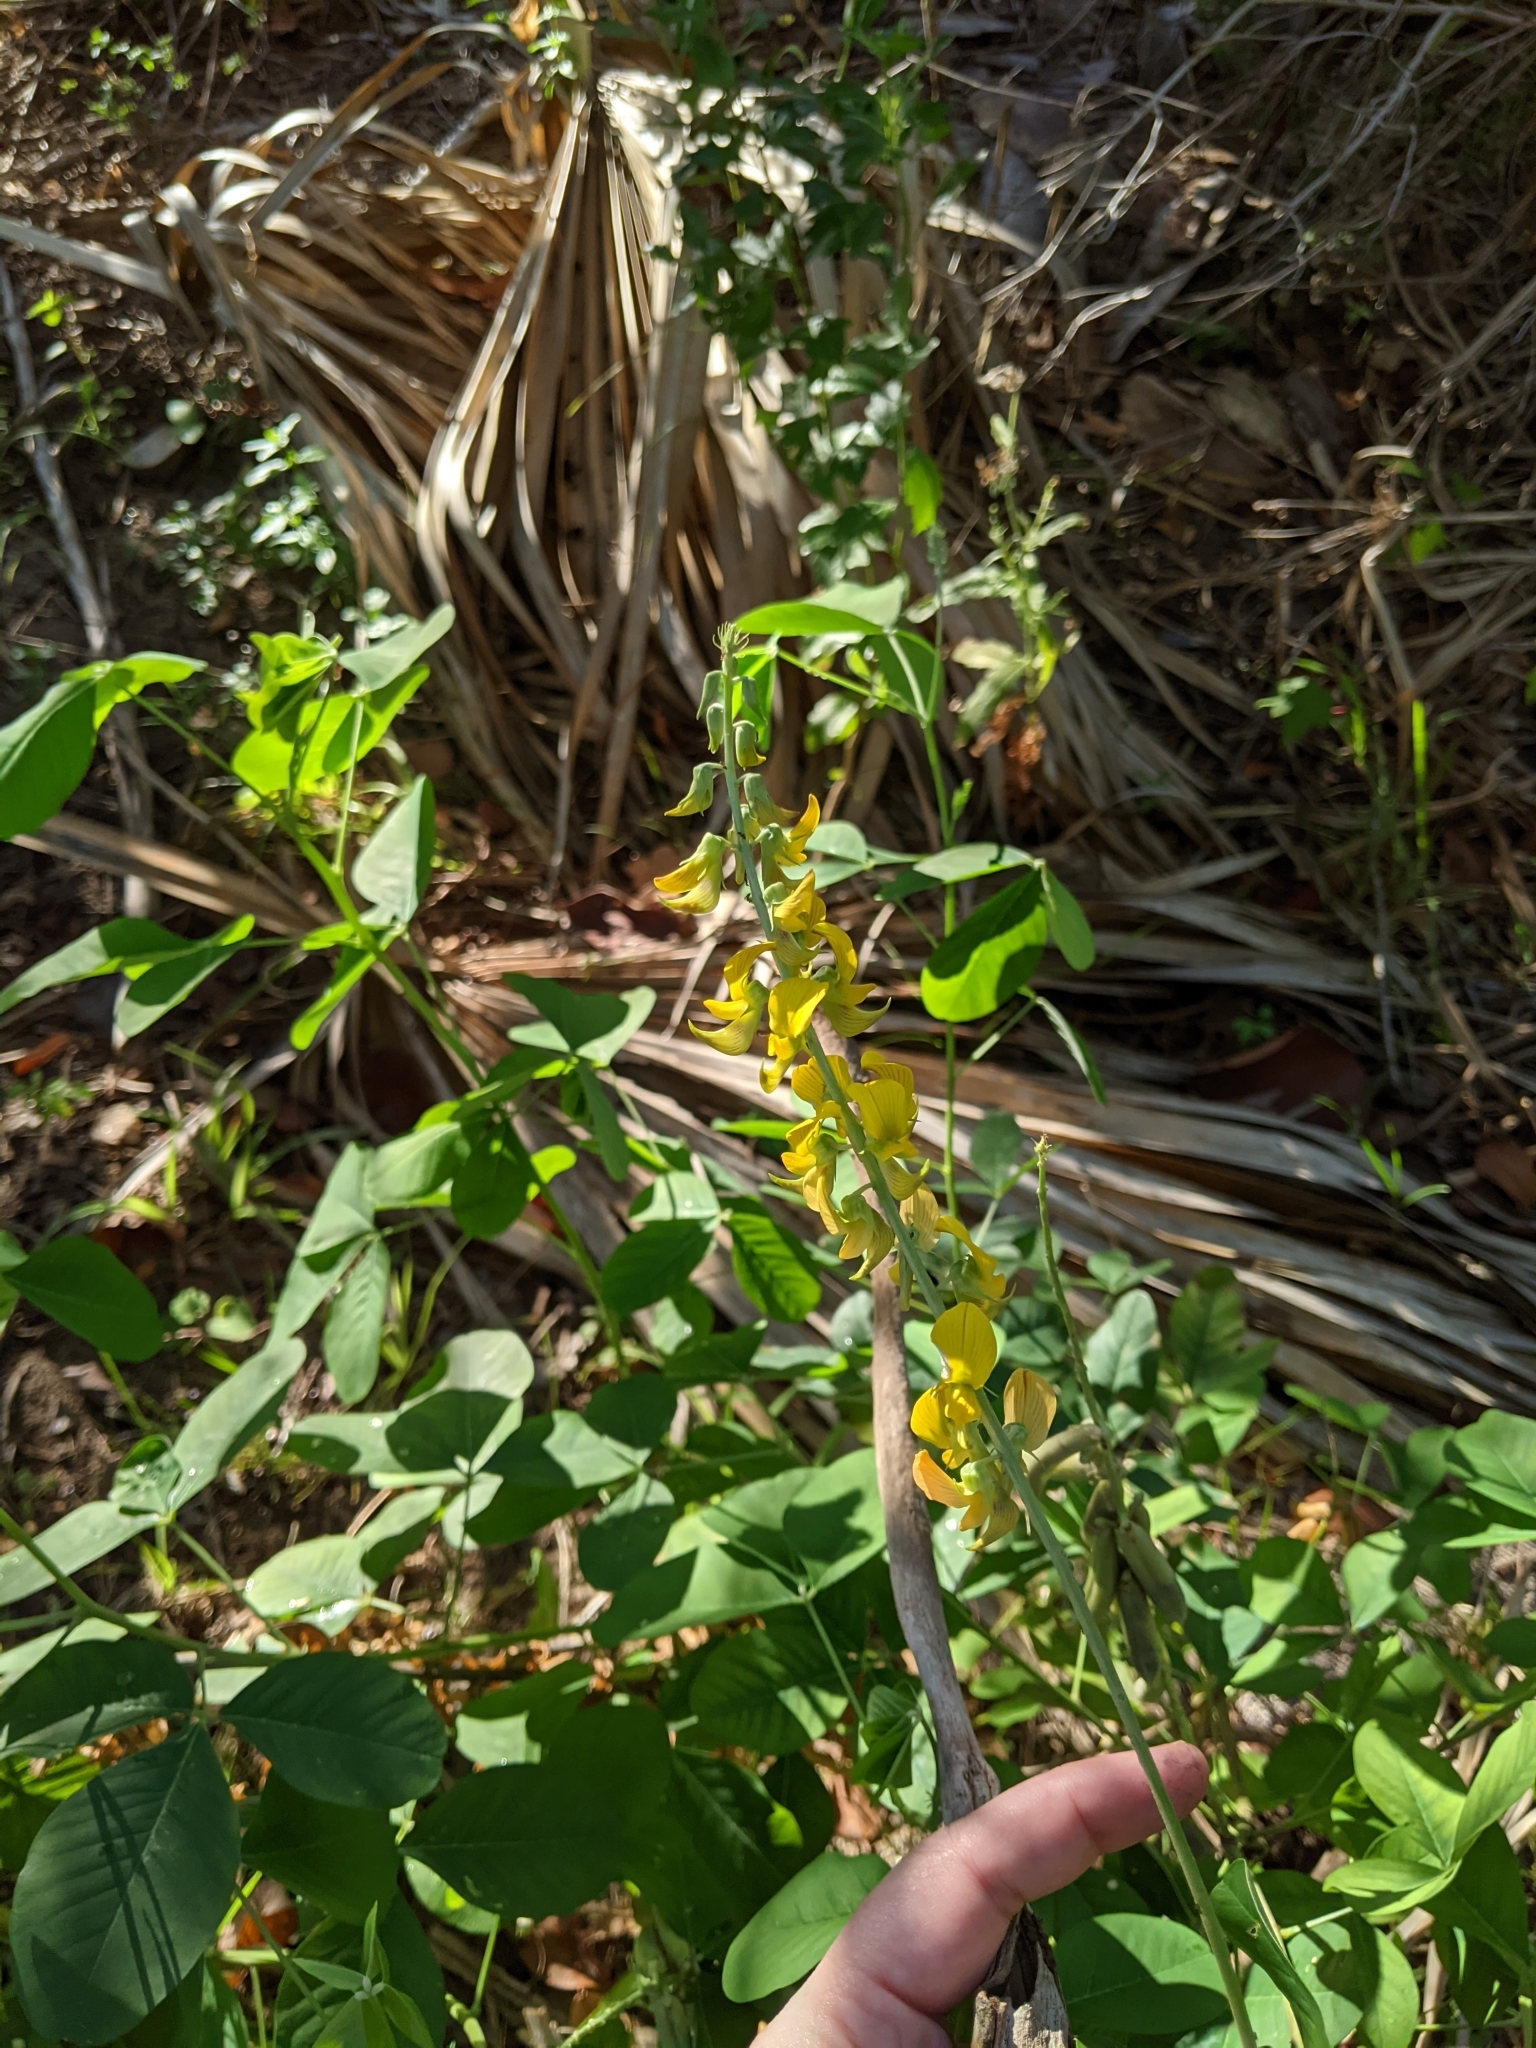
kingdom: Plantae
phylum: Tracheophyta
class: Magnoliopsida
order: Fabales
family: Fabaceae
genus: Crotalaria
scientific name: Crotalaria pallida
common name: Smooth rattlebox
